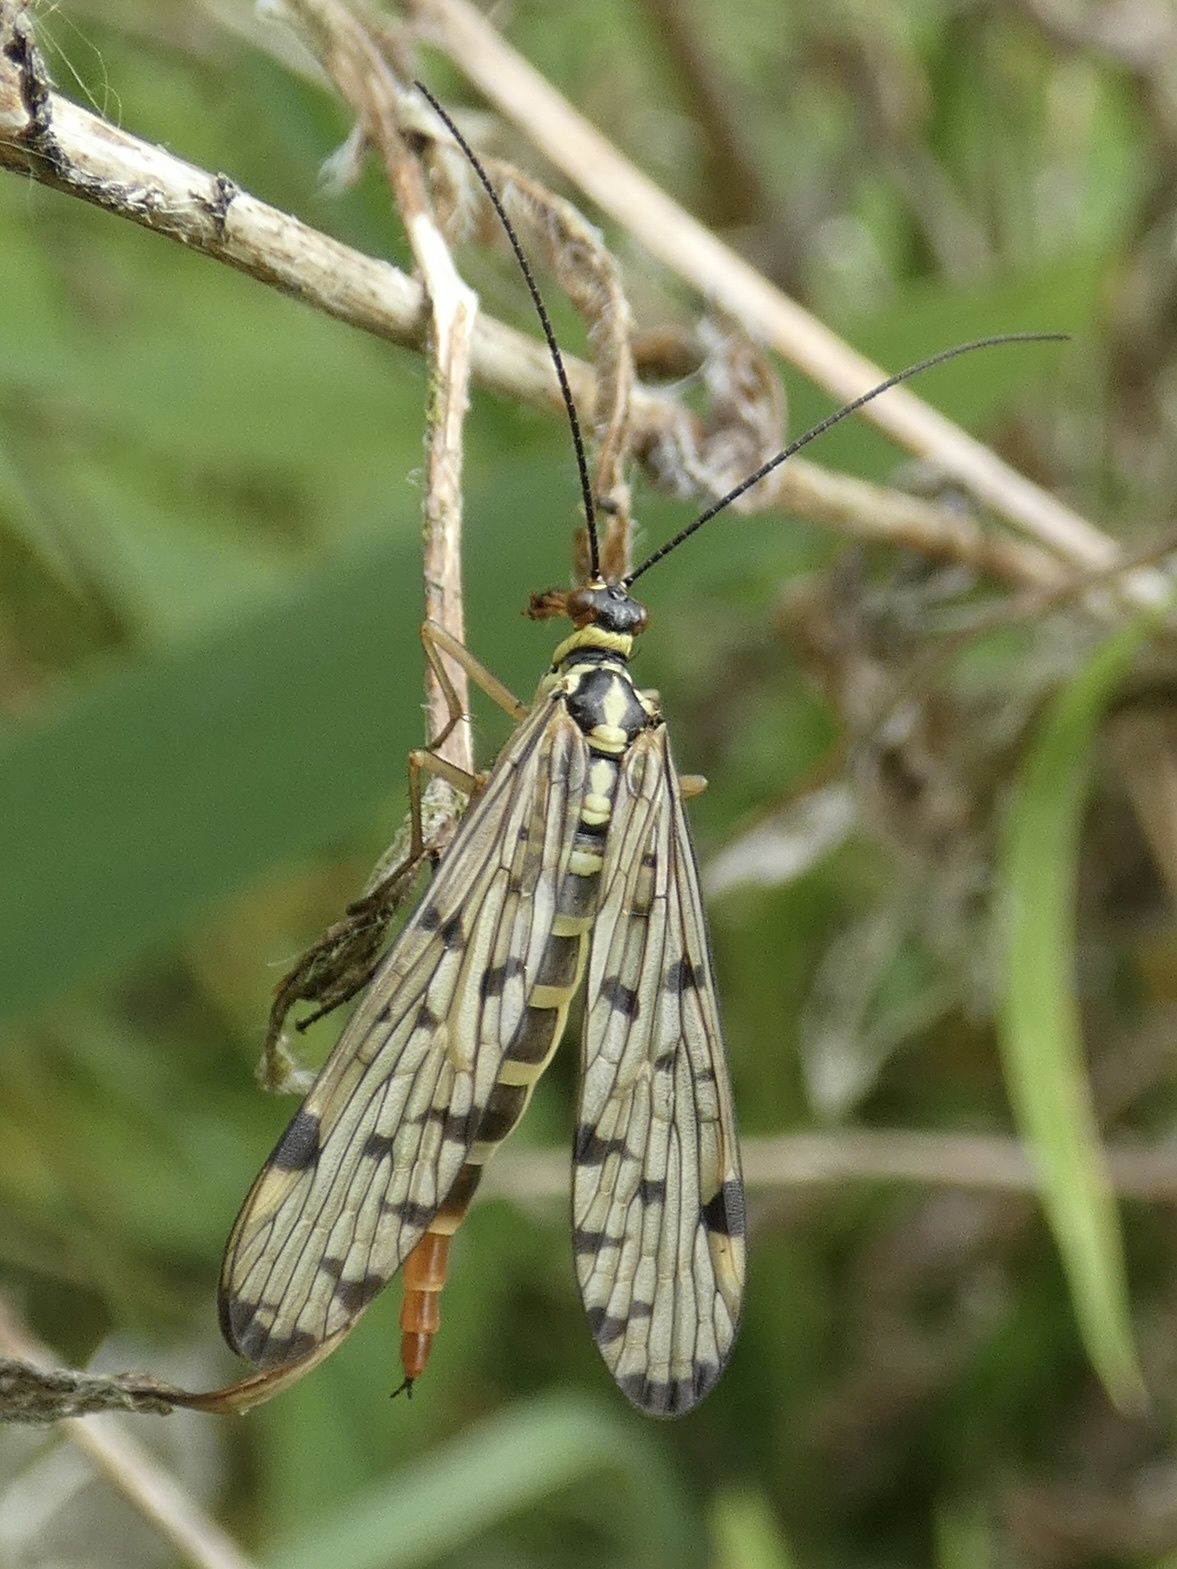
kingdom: Animalia
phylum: Arthropoda
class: Insecta
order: Mecoptera
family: Panorpidae
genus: Panorpa
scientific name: Panorpa germanica
